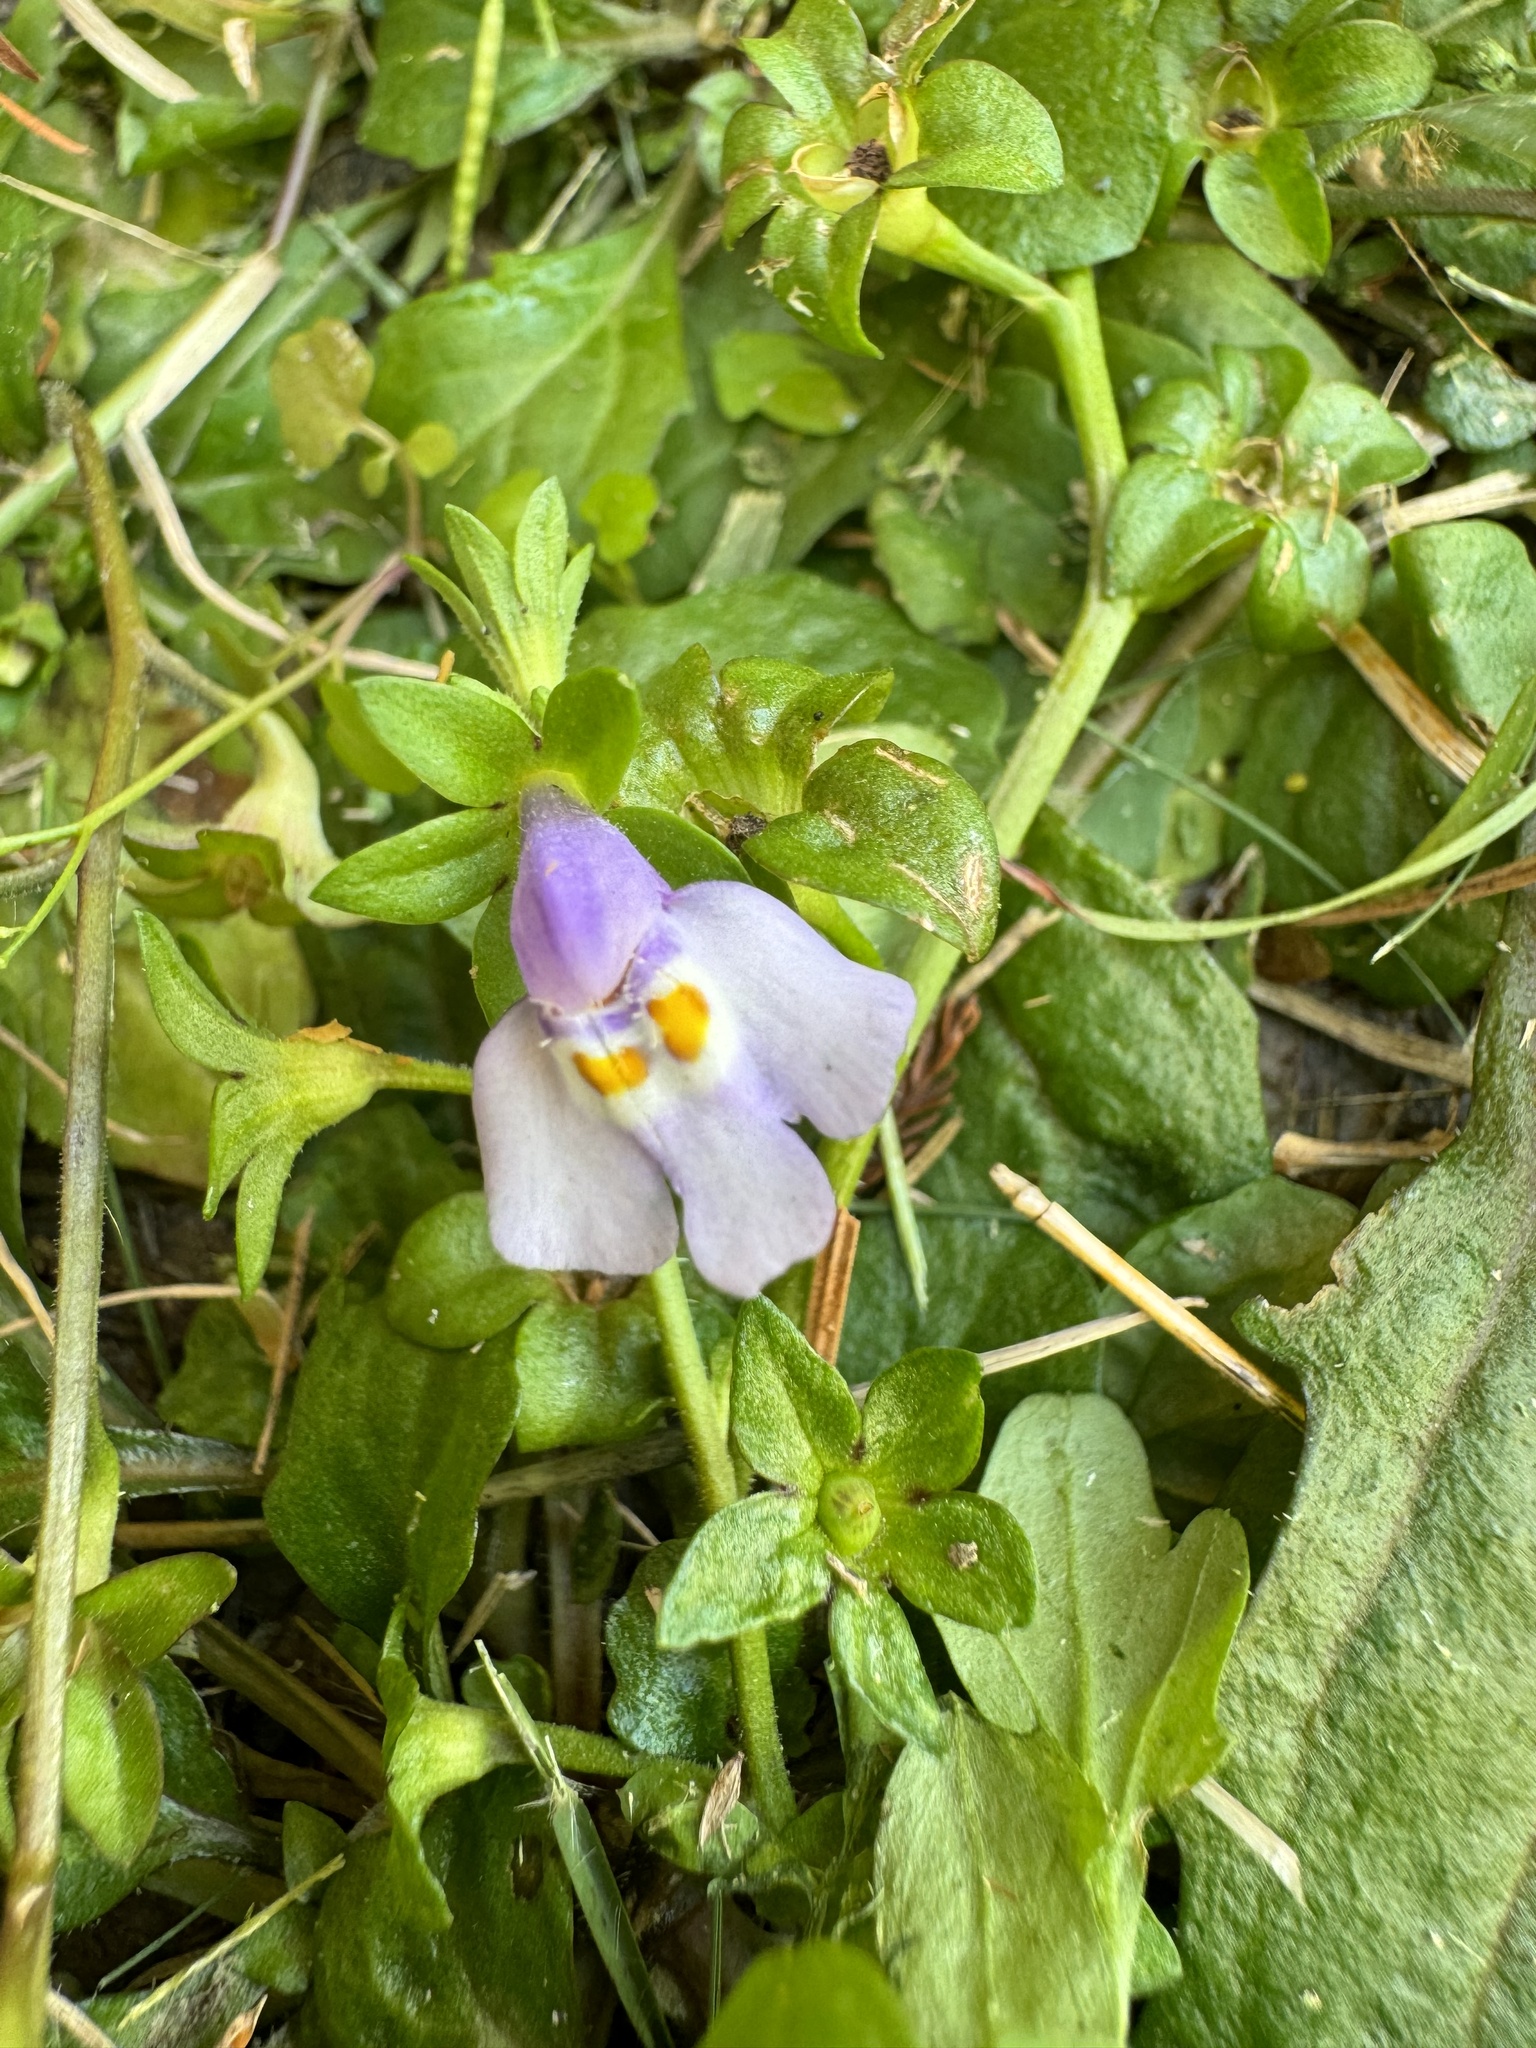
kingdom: Plantae
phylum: Tracheophyta
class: Magnoliopsida
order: Lamiales
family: Mazaceae
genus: Mazus
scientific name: Mazus pumilus
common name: Japanese mazus
